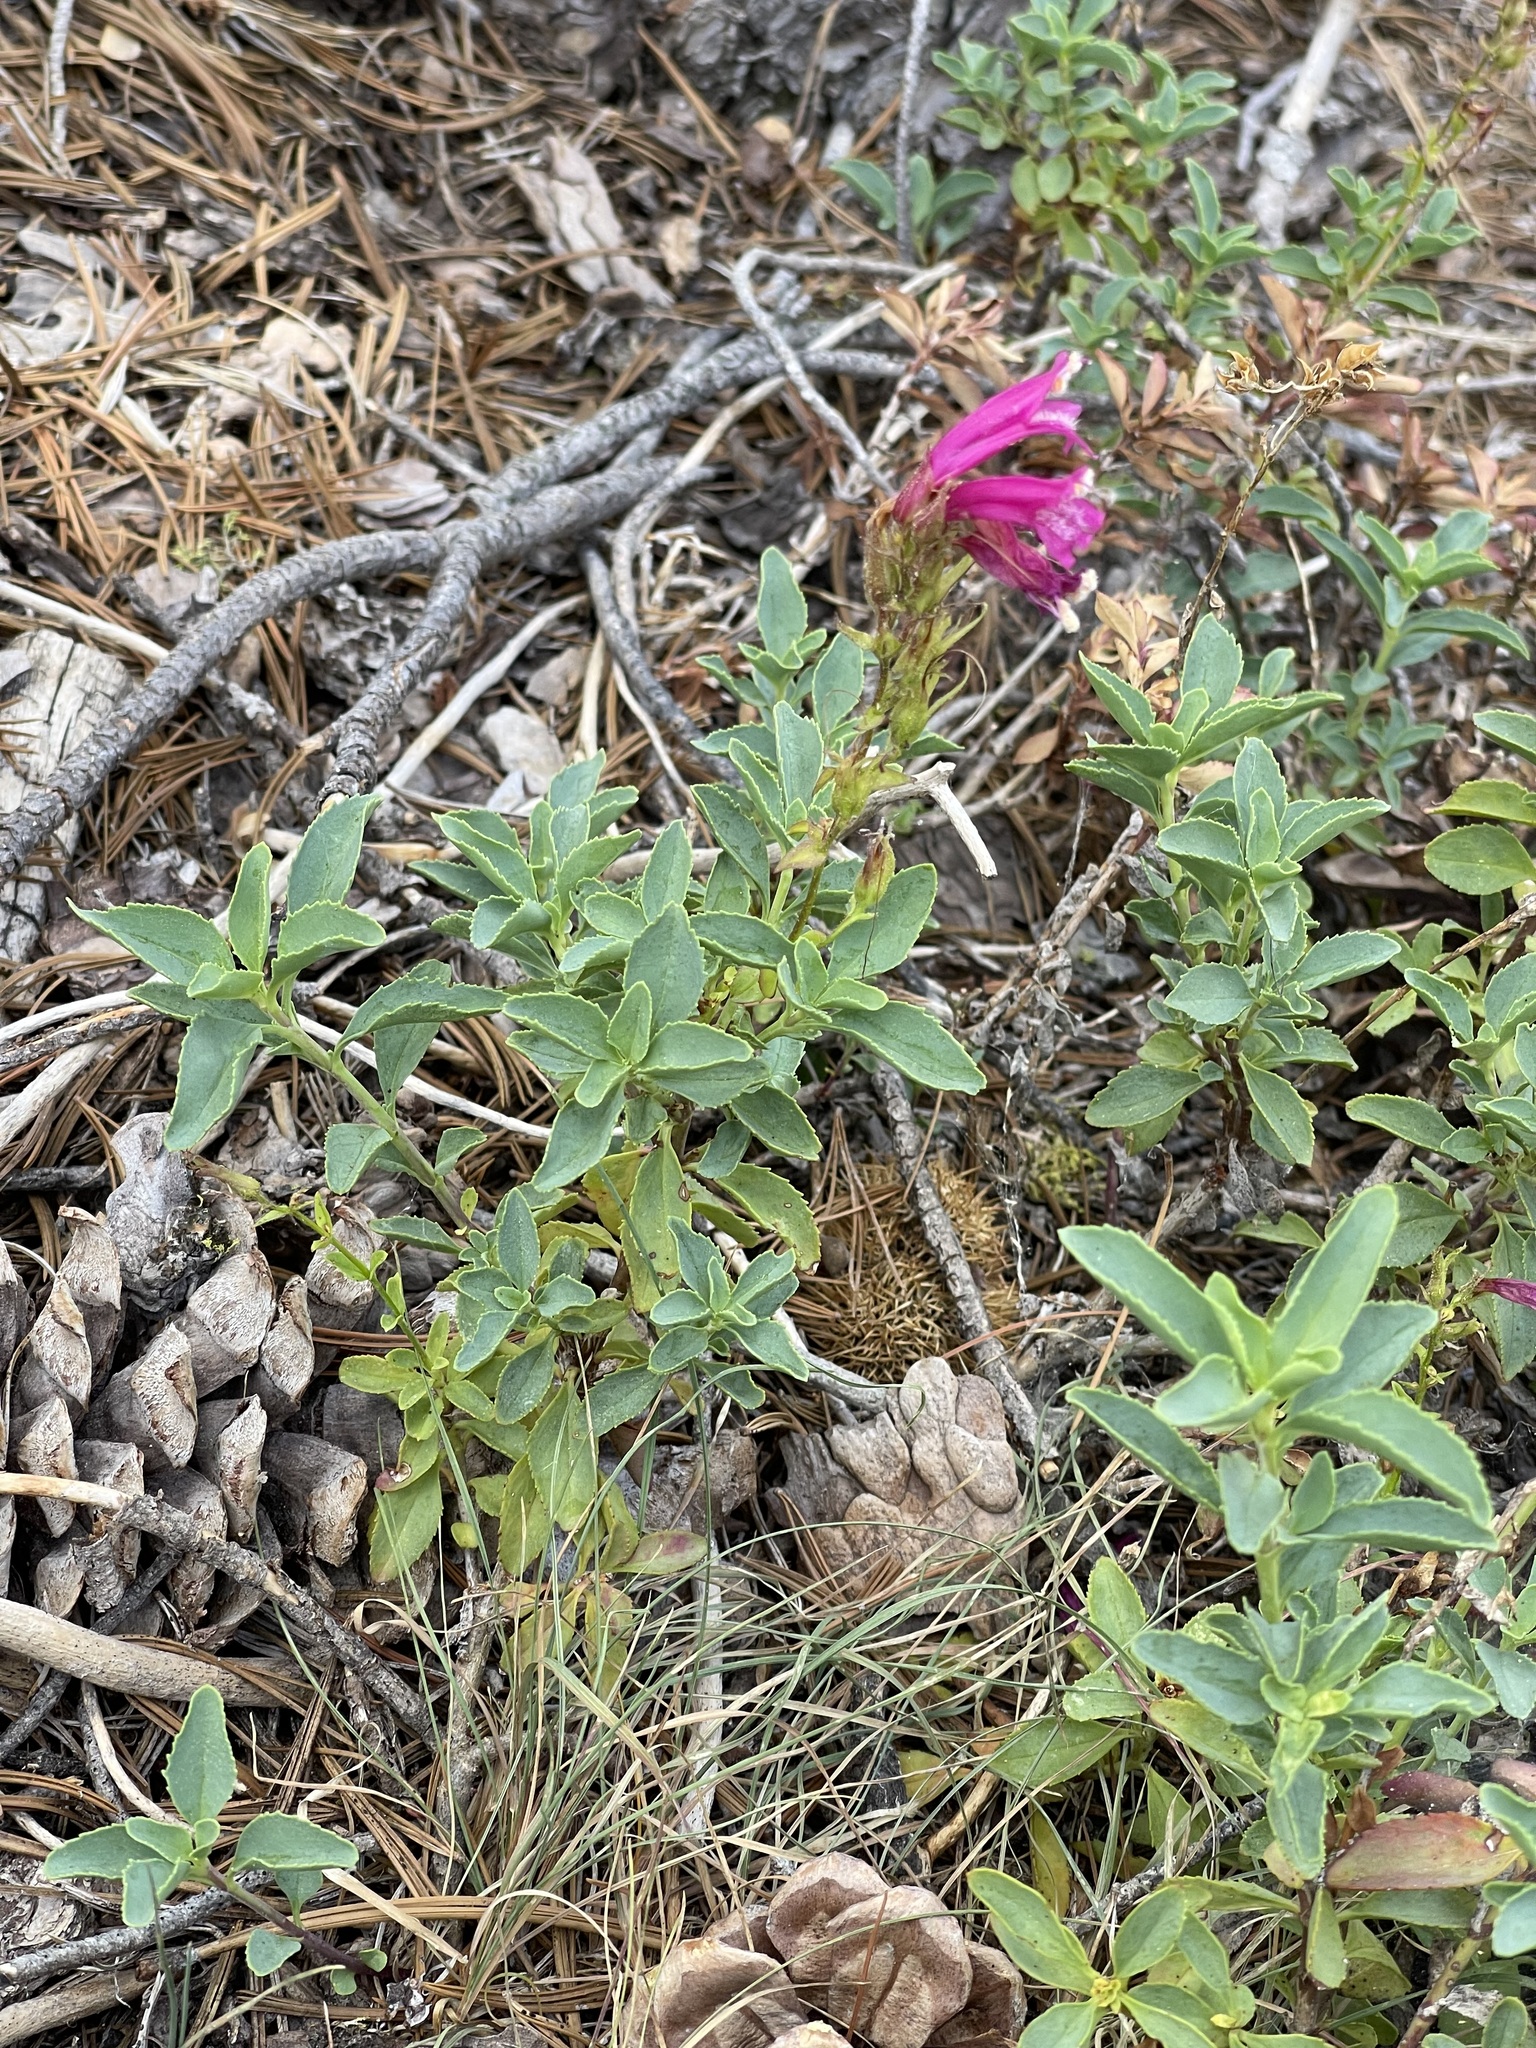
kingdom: Plantae
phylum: Tracheophyta
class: Magnoliopsida
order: Lamiales
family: Plantaginaceae
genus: Penstemon
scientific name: Penstemon newberryi
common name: Mountain-pride
